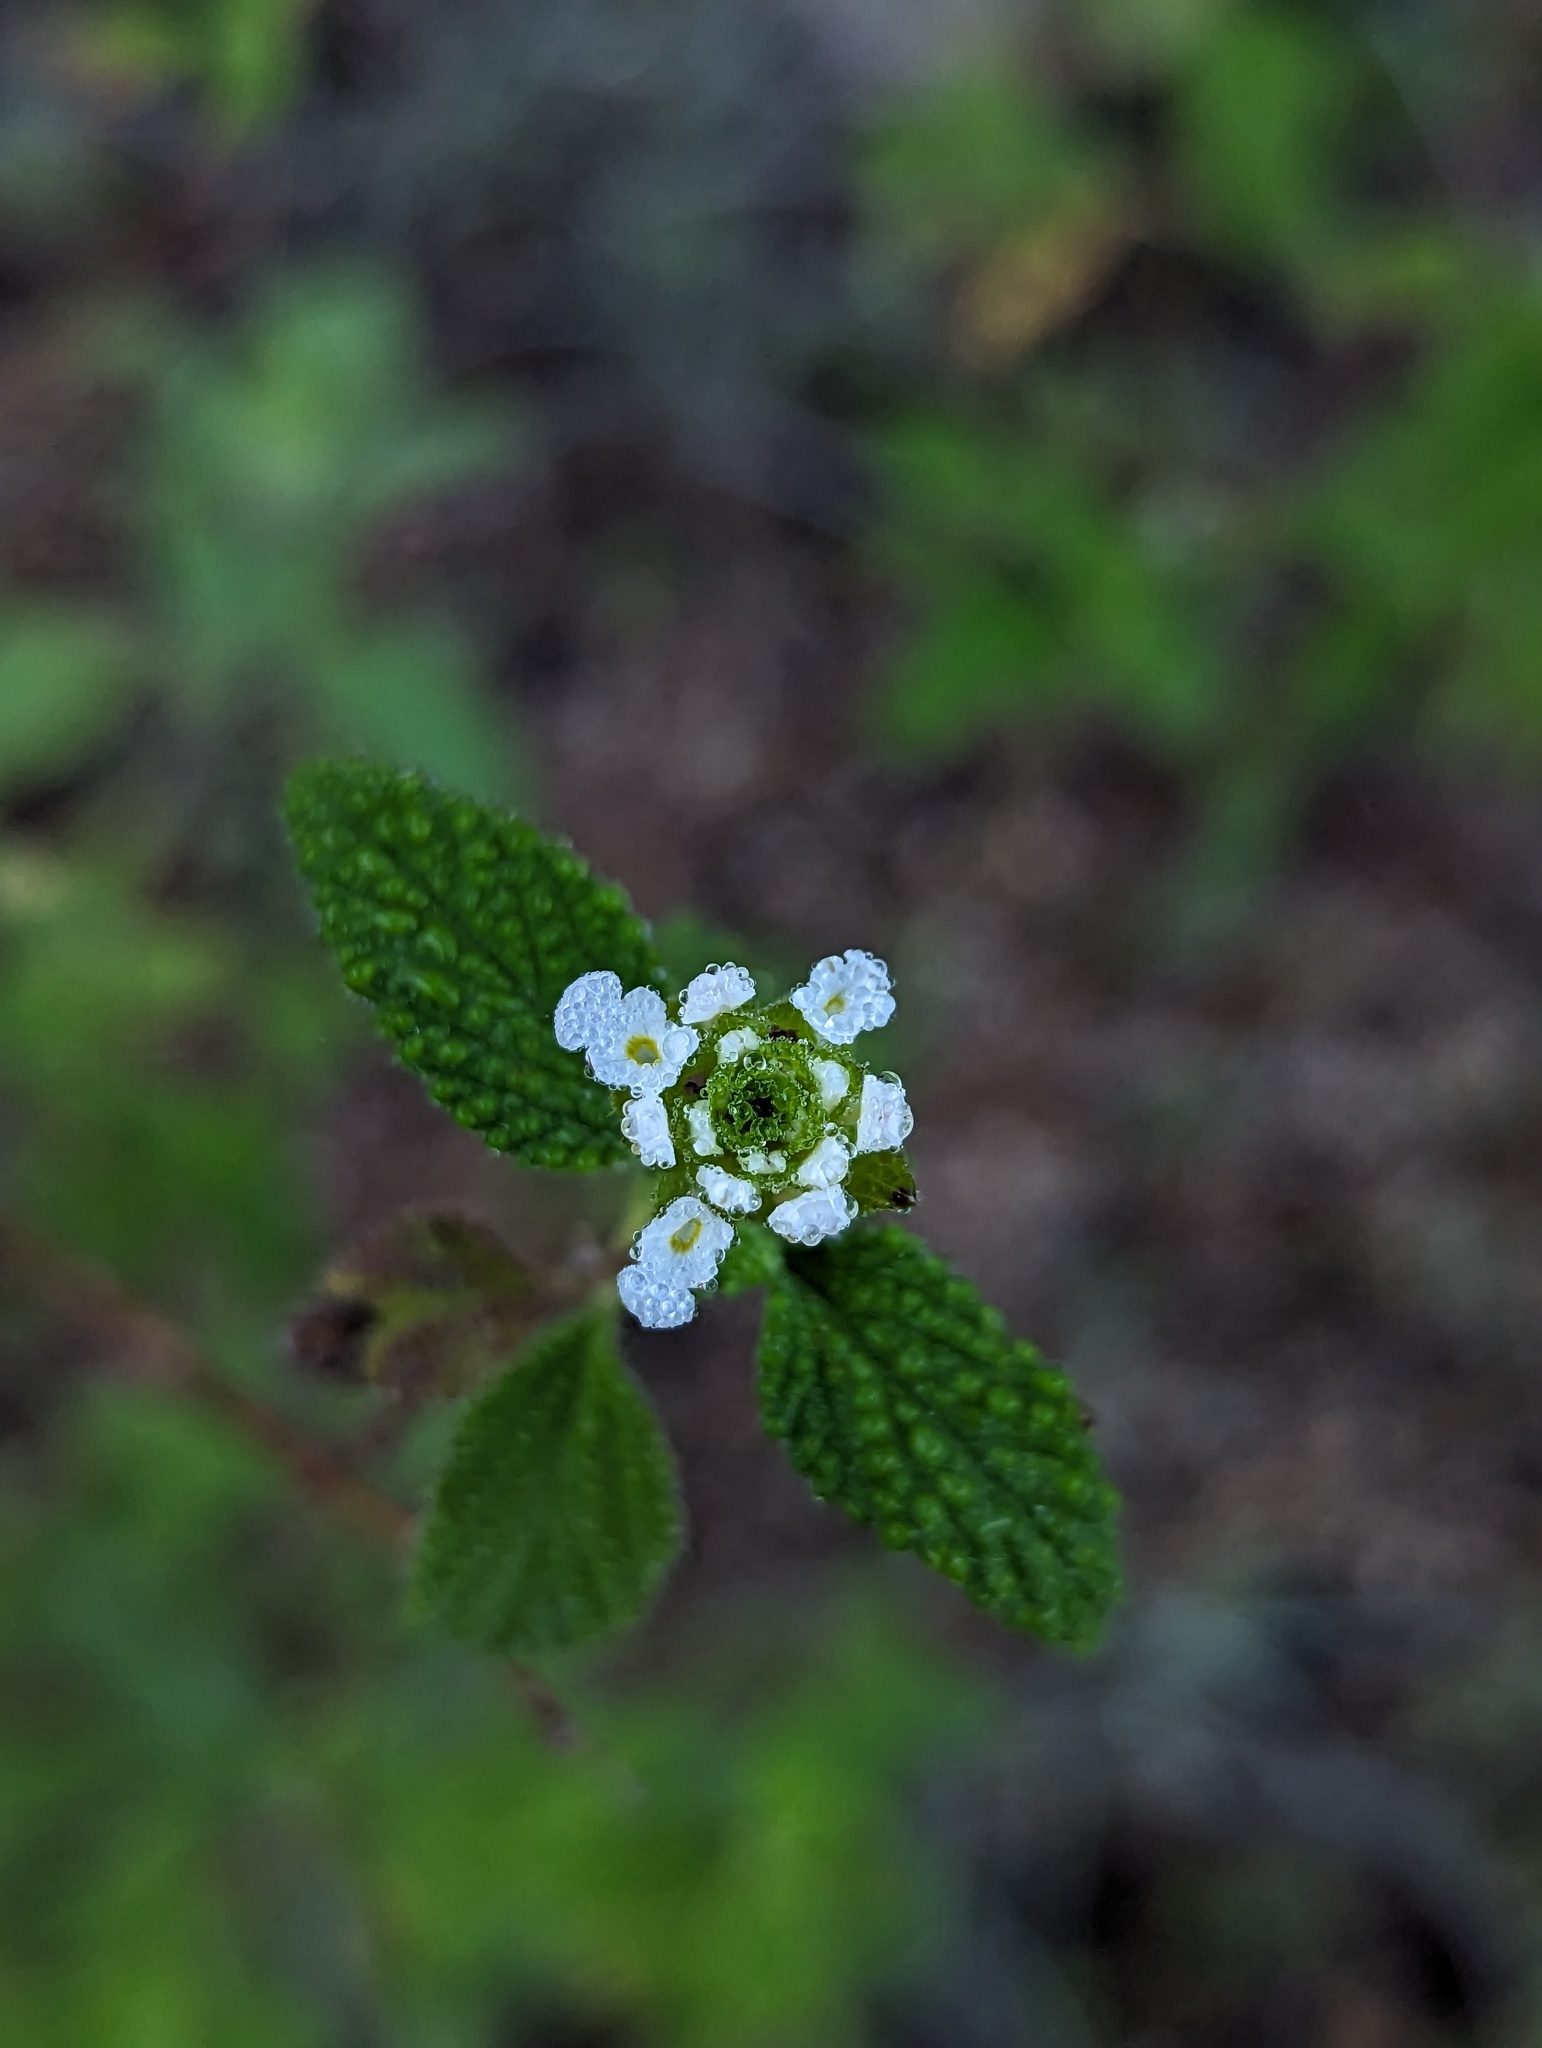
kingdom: Plantae
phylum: Tracheophyta
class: Magnoliopsida
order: Lamiales
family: Verbenaceae
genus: Lantana
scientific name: Lantana velutina
